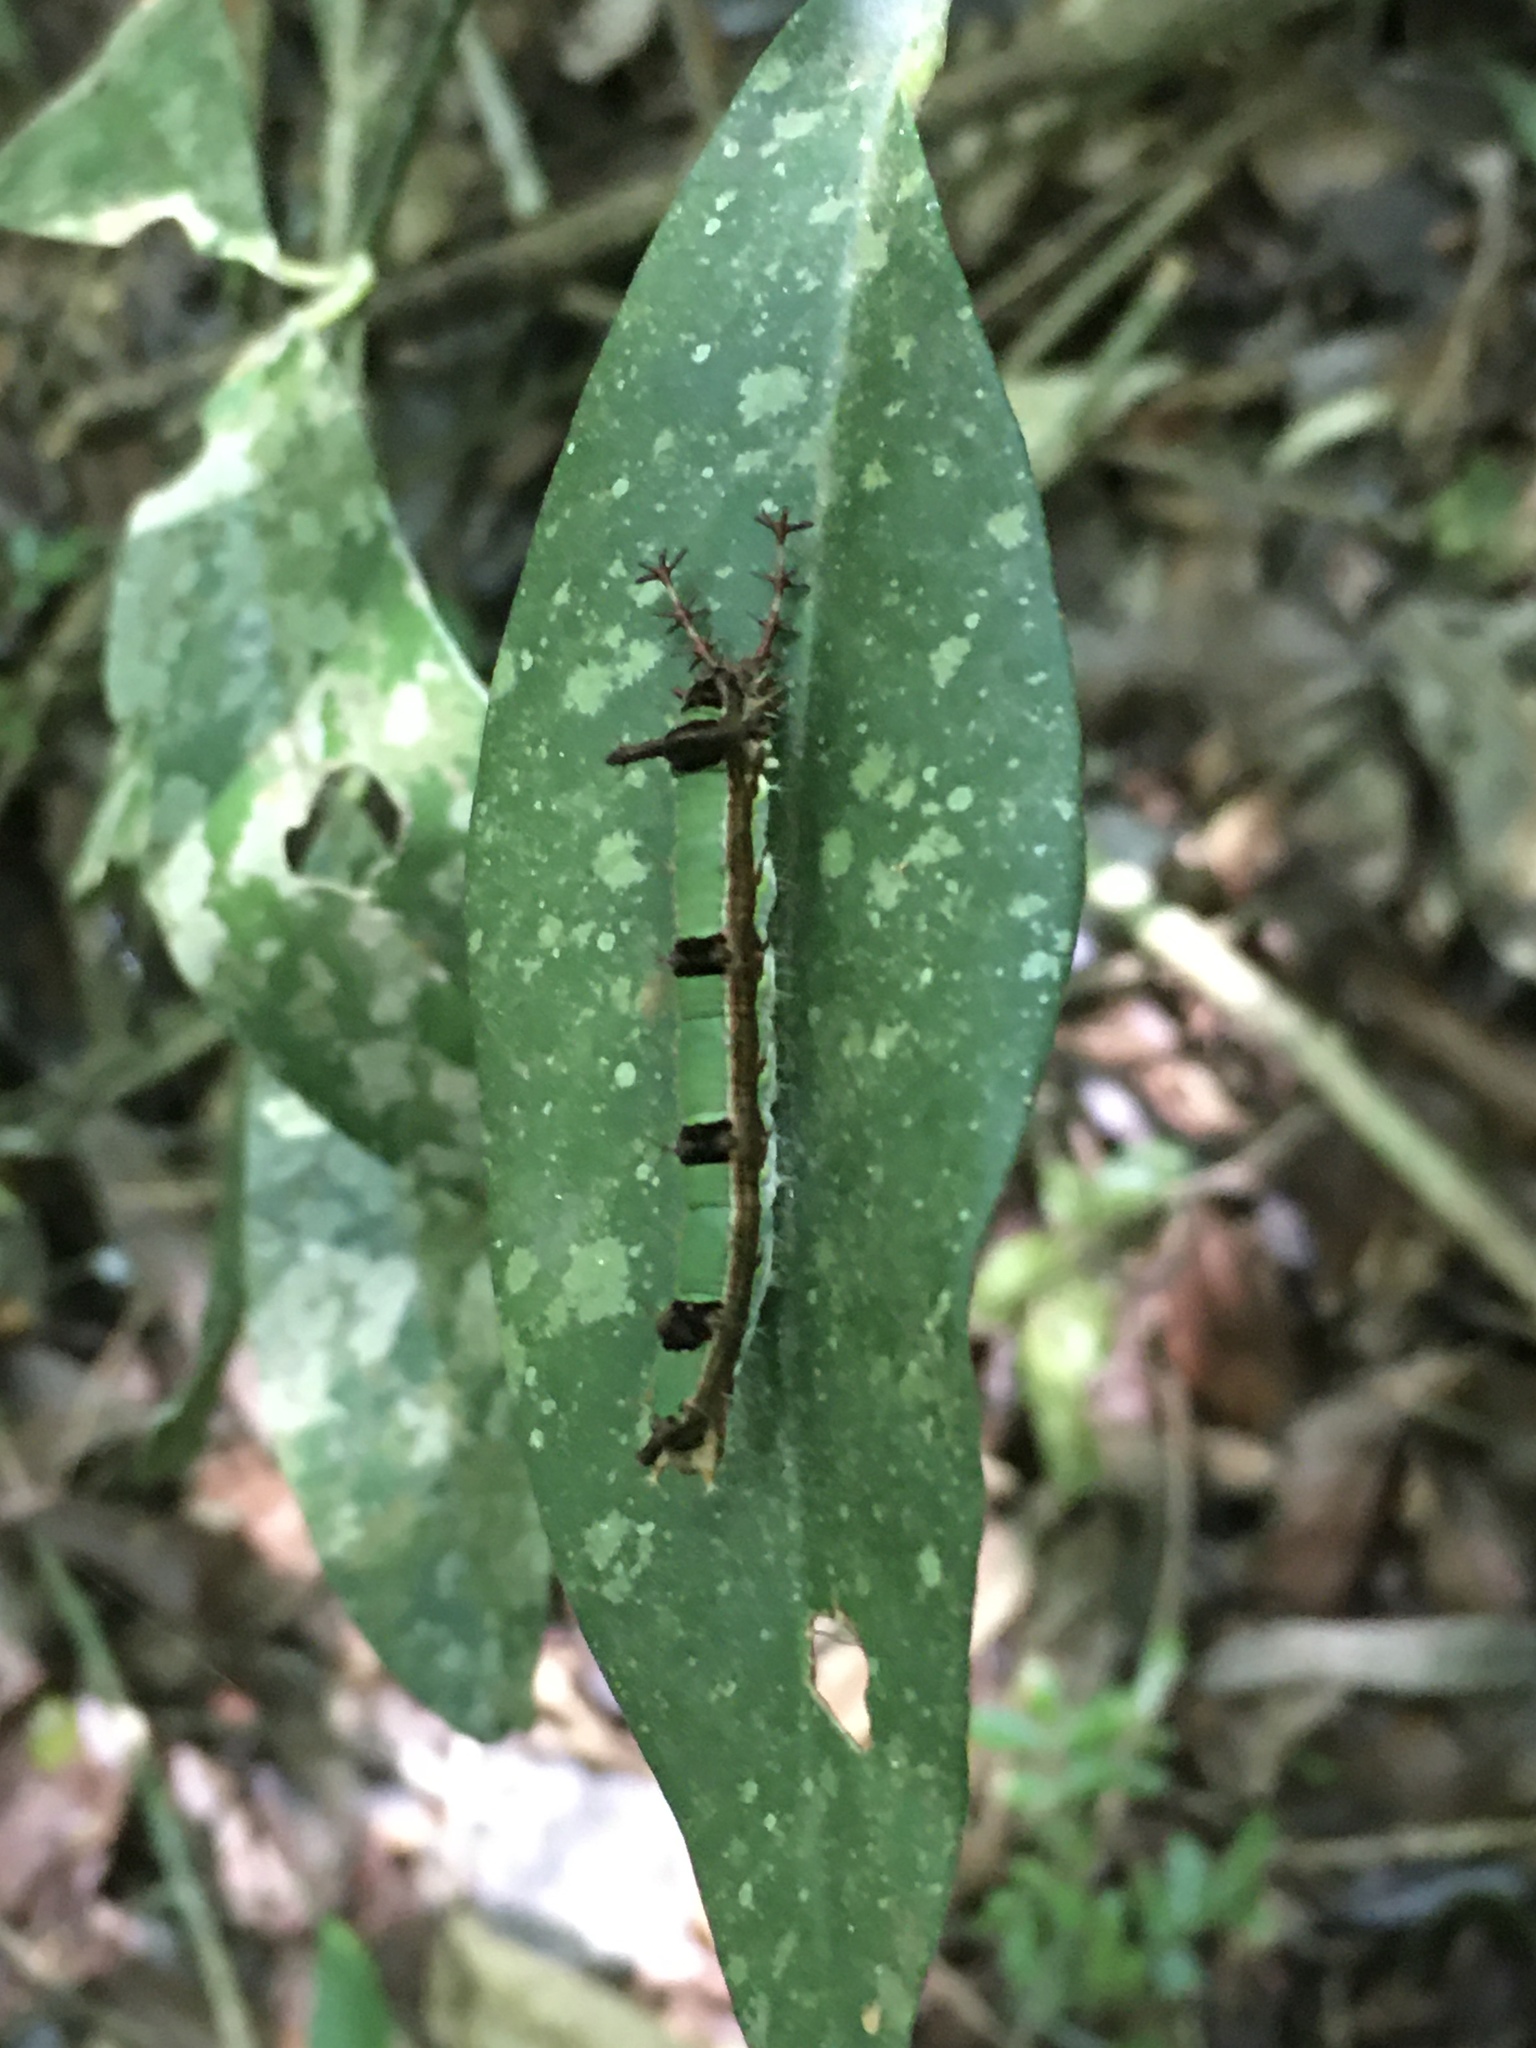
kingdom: Animalia
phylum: Arthropoda
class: Insecta
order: Lepidoptera
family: Nymphalidae
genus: Temenis
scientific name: Temenis laothoe
